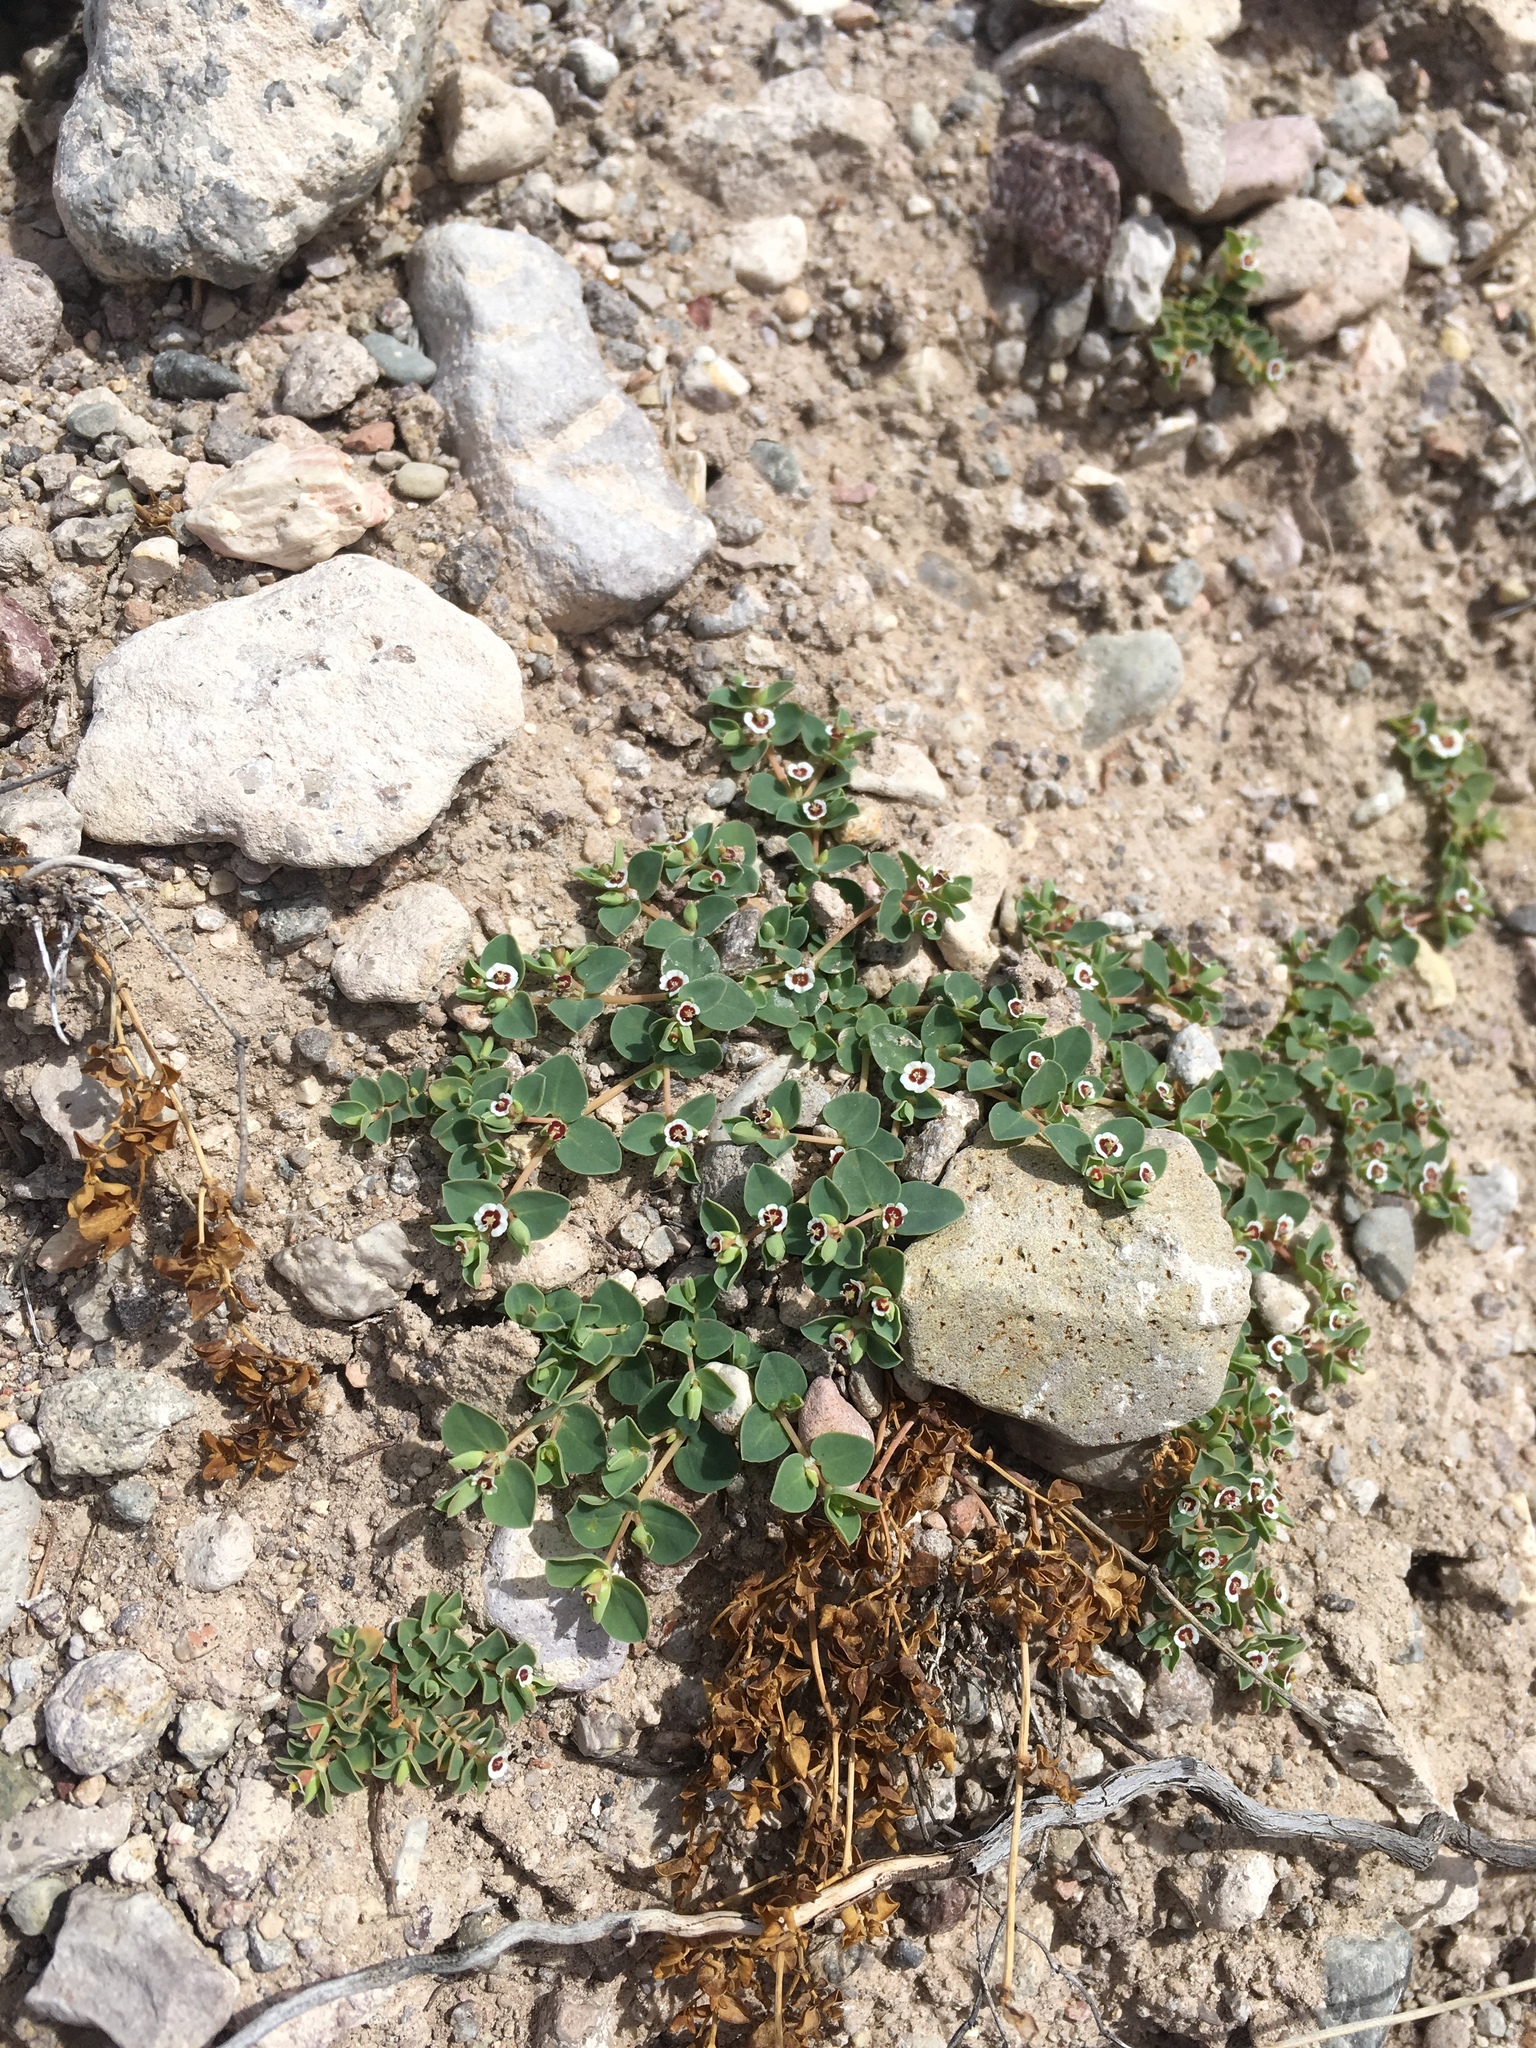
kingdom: Plantae
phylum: Tracheophyta
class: Magnoliopsida
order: Malpighiales
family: Euphorbiaceae
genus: Euphorbia
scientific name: Euphorbia albomarginata
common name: Whitemargin sandmat
